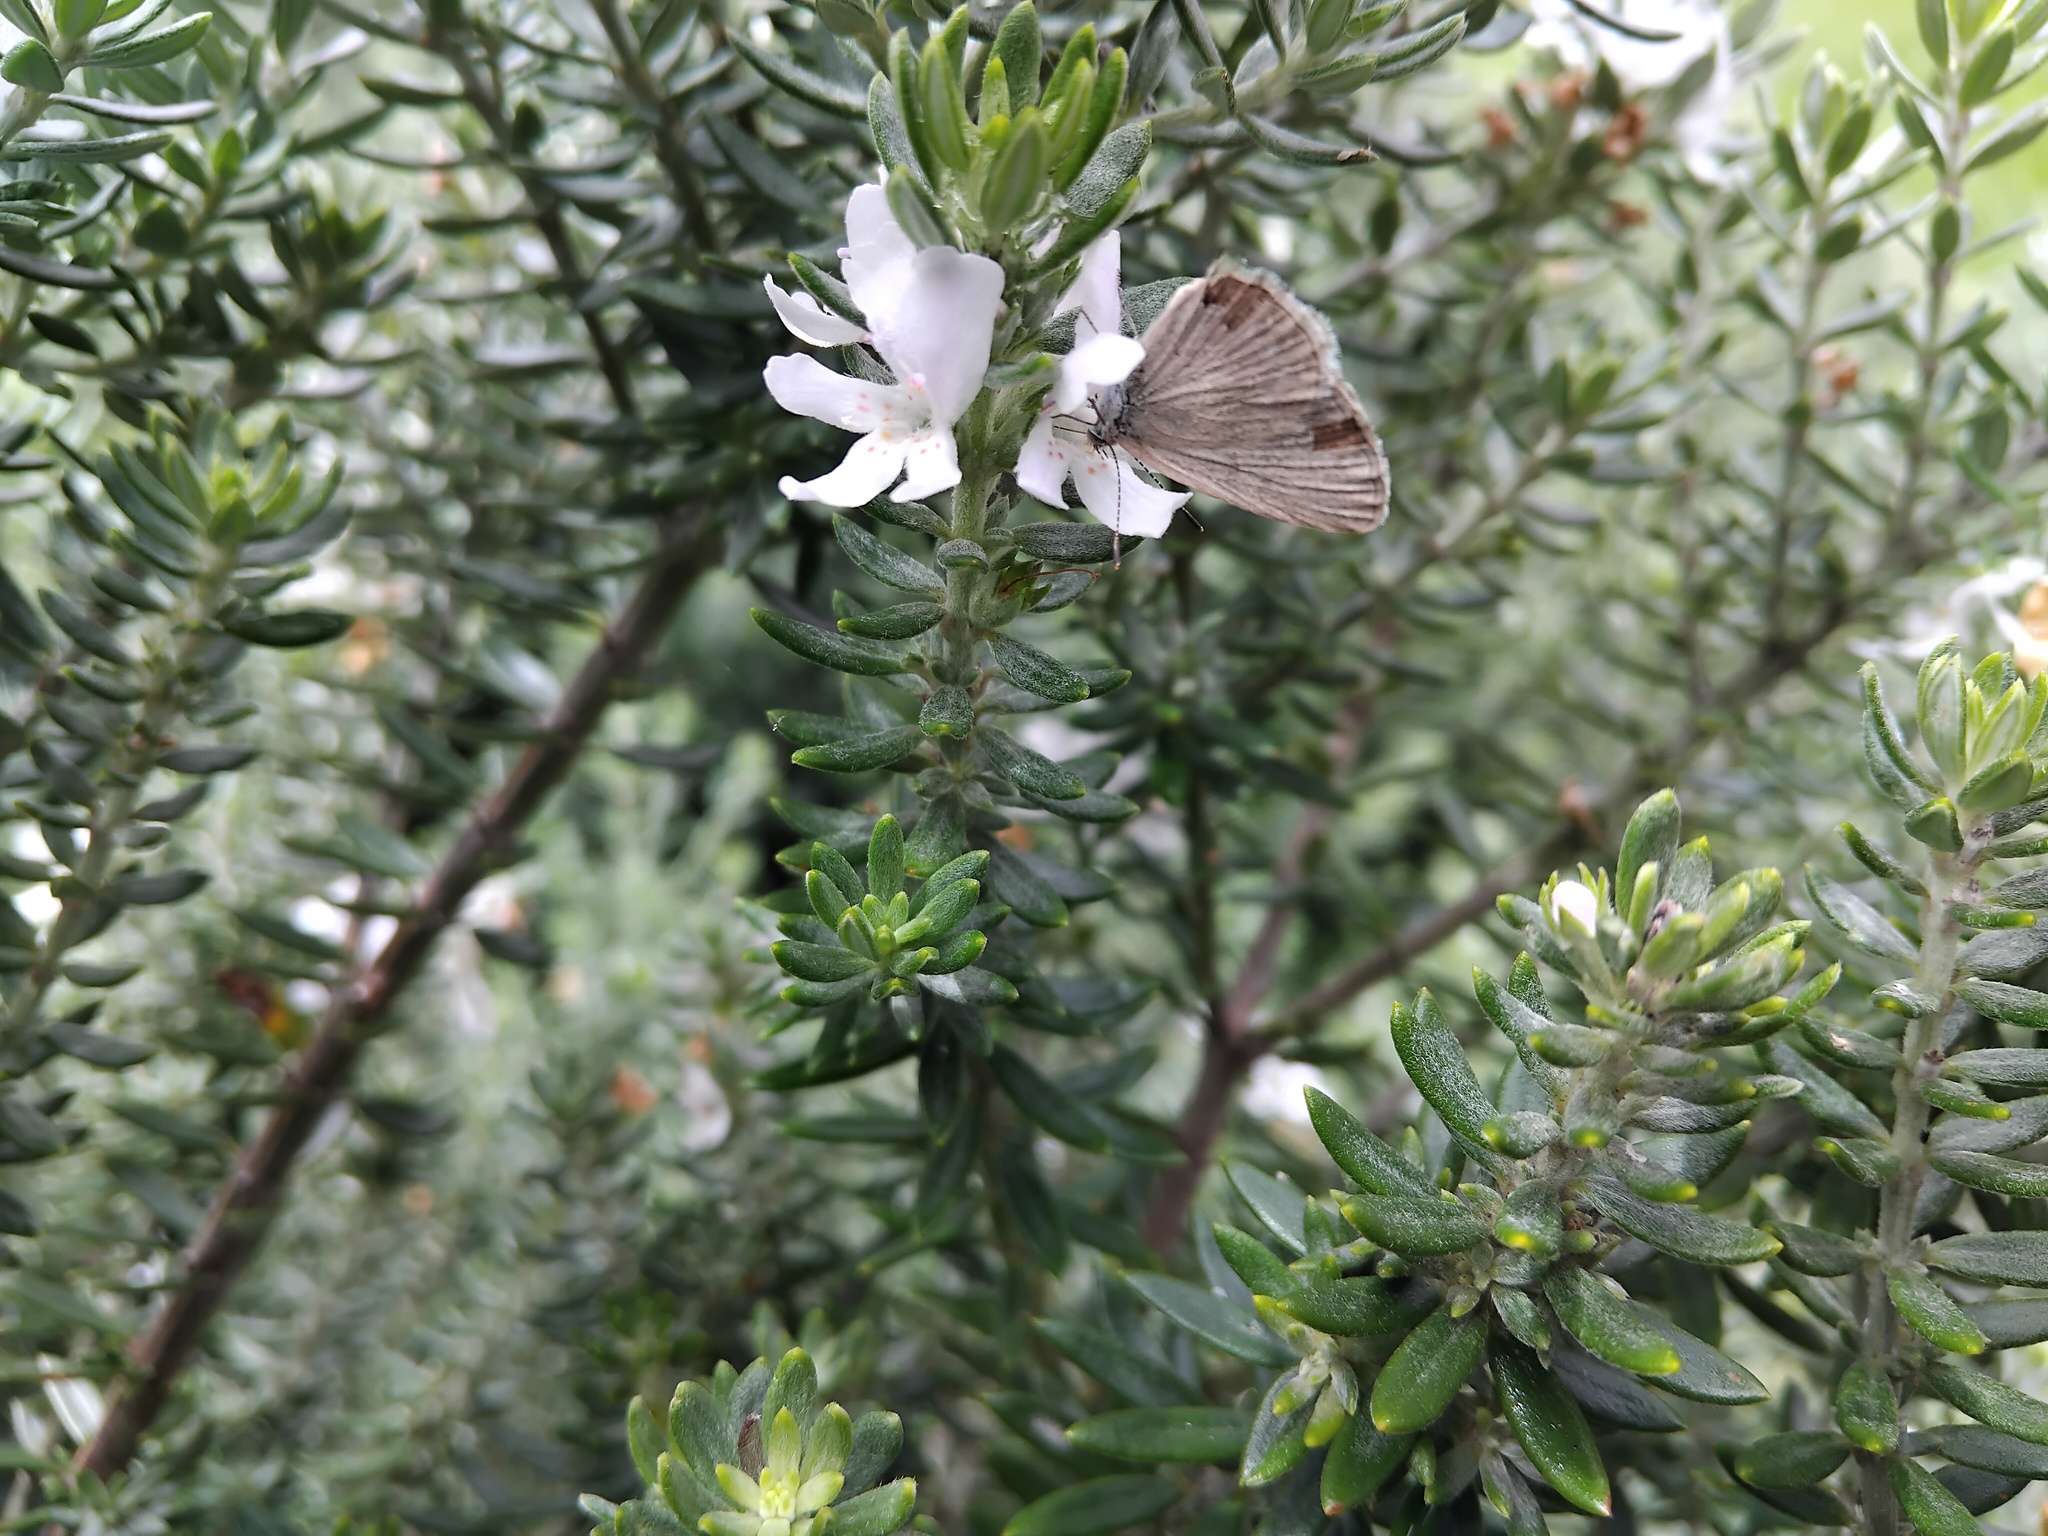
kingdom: Animalia
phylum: Arthropoda
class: Insecta
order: Lepidoptera
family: Lycaenidae
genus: Zizina
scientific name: Zizina labradus
